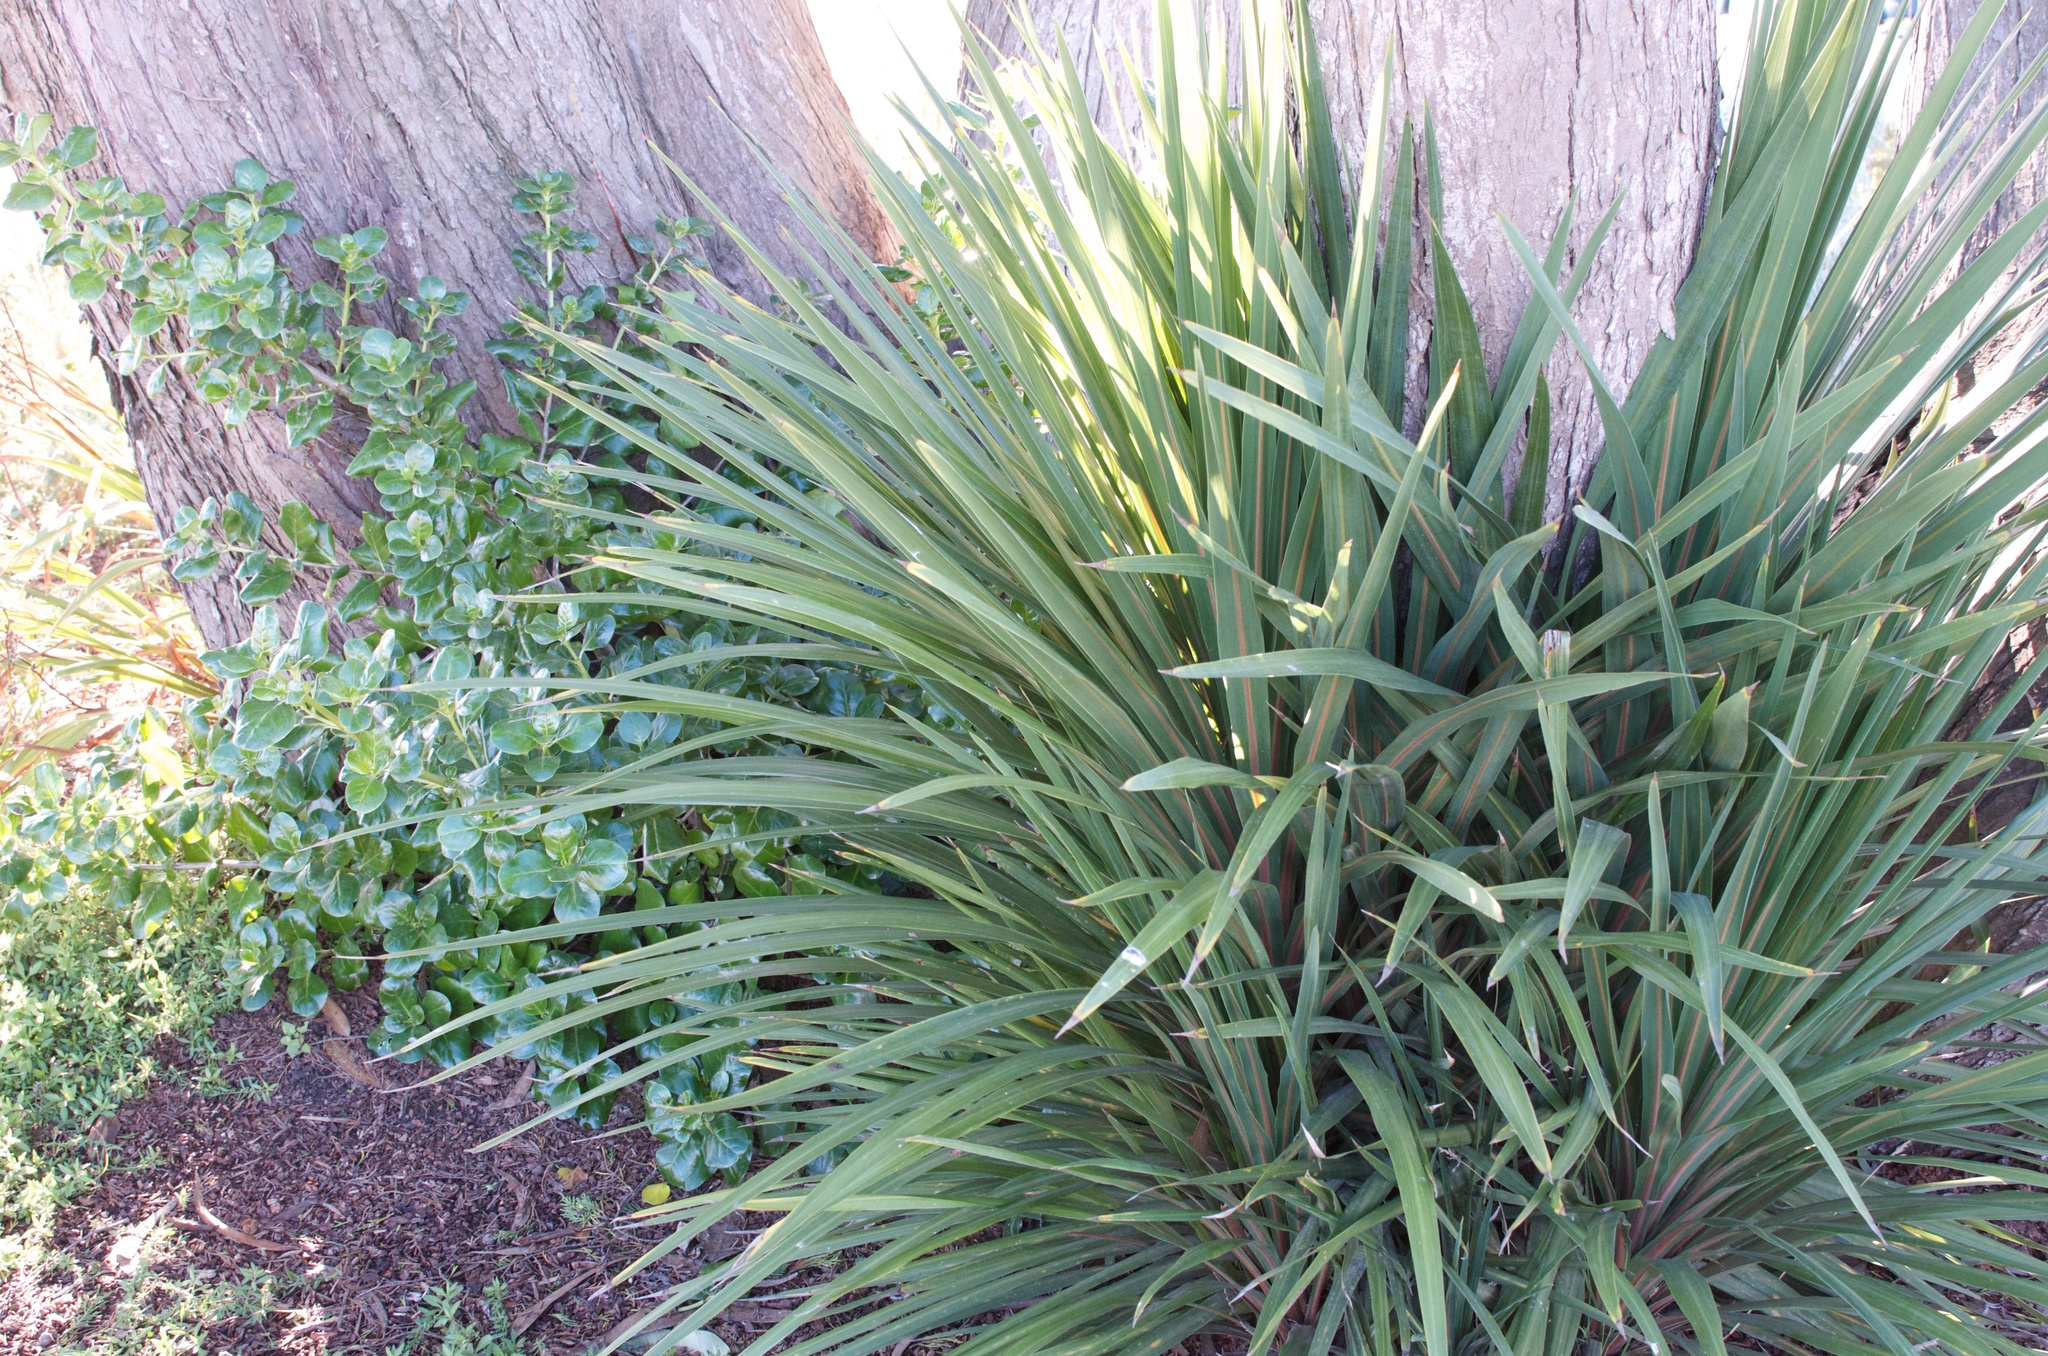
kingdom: Plantae
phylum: Tracheophyta
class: Magnoliopsida
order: Gentianales
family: Rubiaceae
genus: Coprosma
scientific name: Coprosma repens
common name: Tree bedstraw
